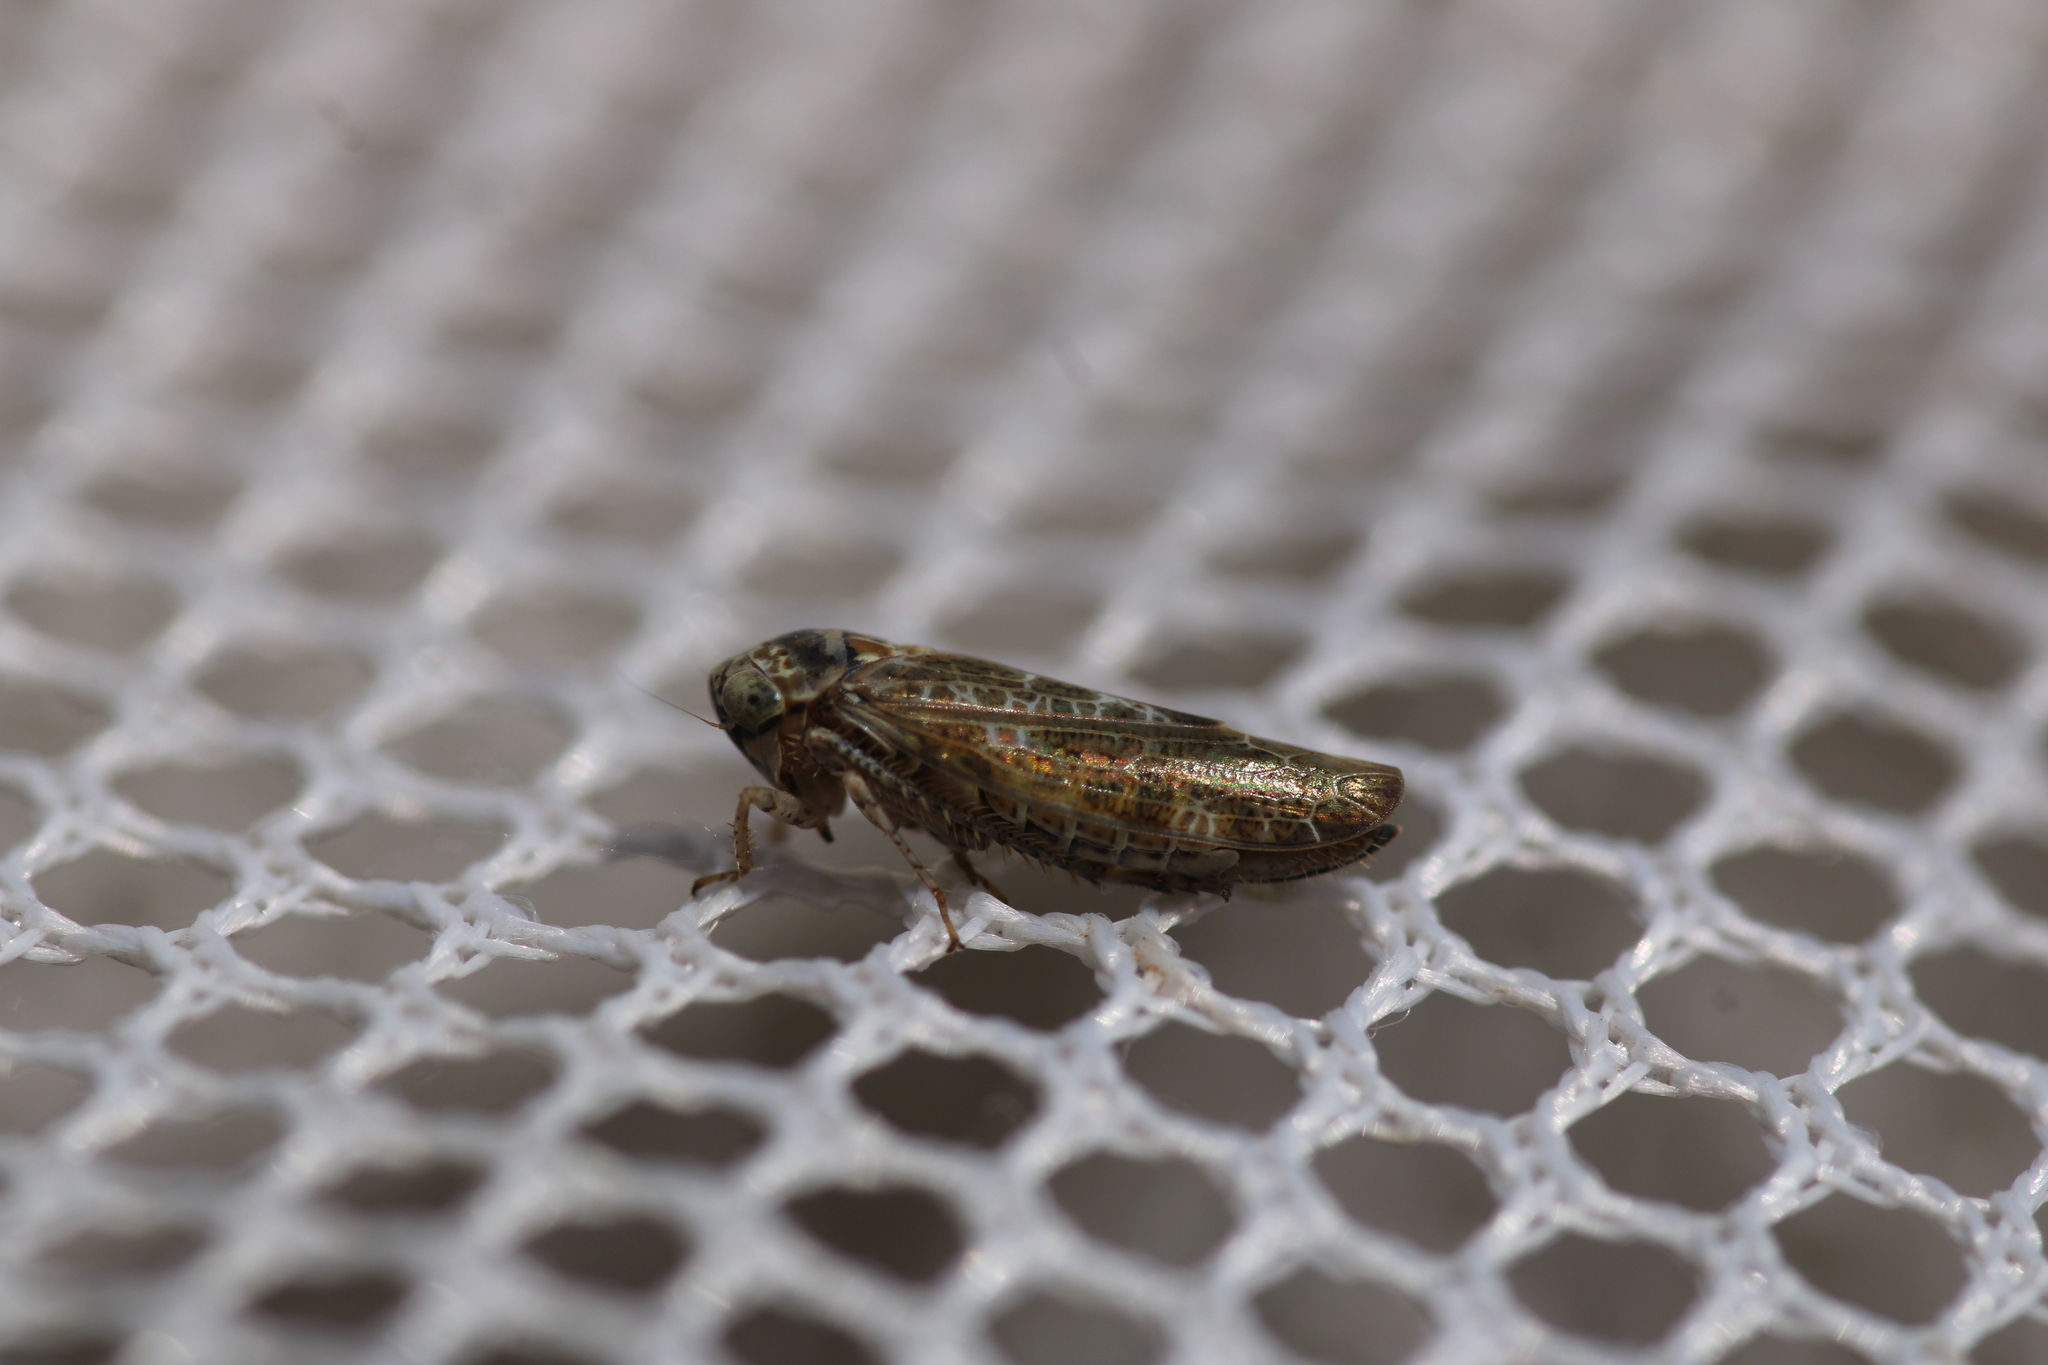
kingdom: Animalia
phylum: Arthropoda
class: Insecta
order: Hemiptera
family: Cicadellidae
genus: Allygus
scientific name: Allygus modestus
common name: Leafhopper
